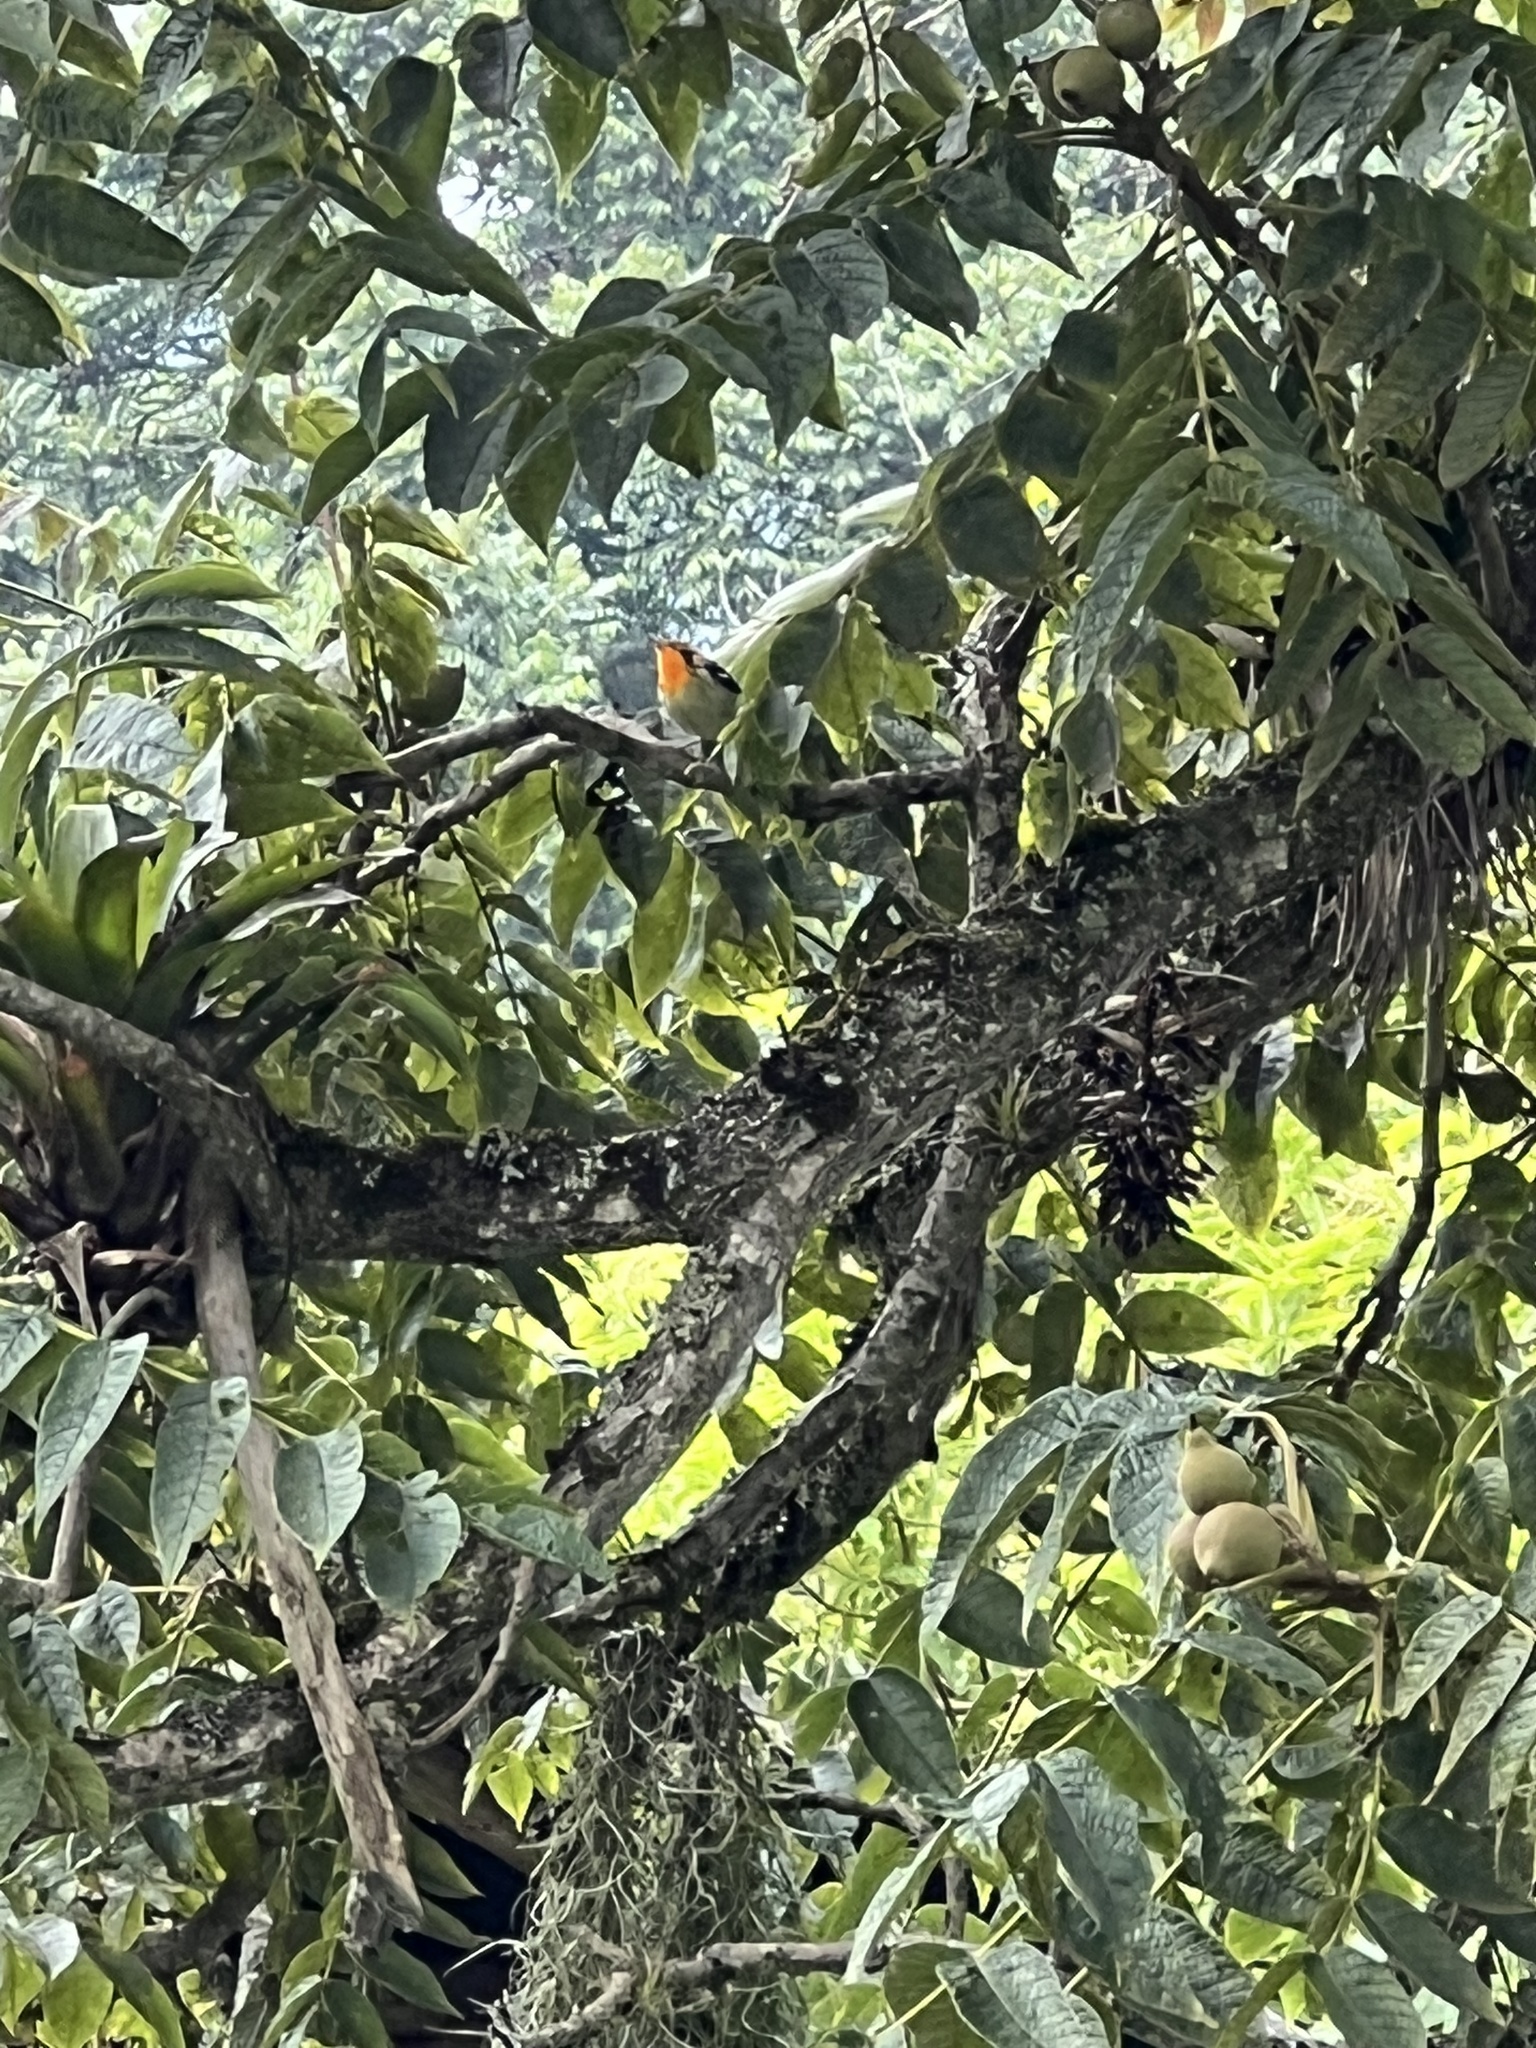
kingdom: Animalia
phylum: Chordata
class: Aves
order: Passeriformes
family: Parulidae
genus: Setophaga
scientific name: Setophaga fusca
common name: Blackburnian warbler
